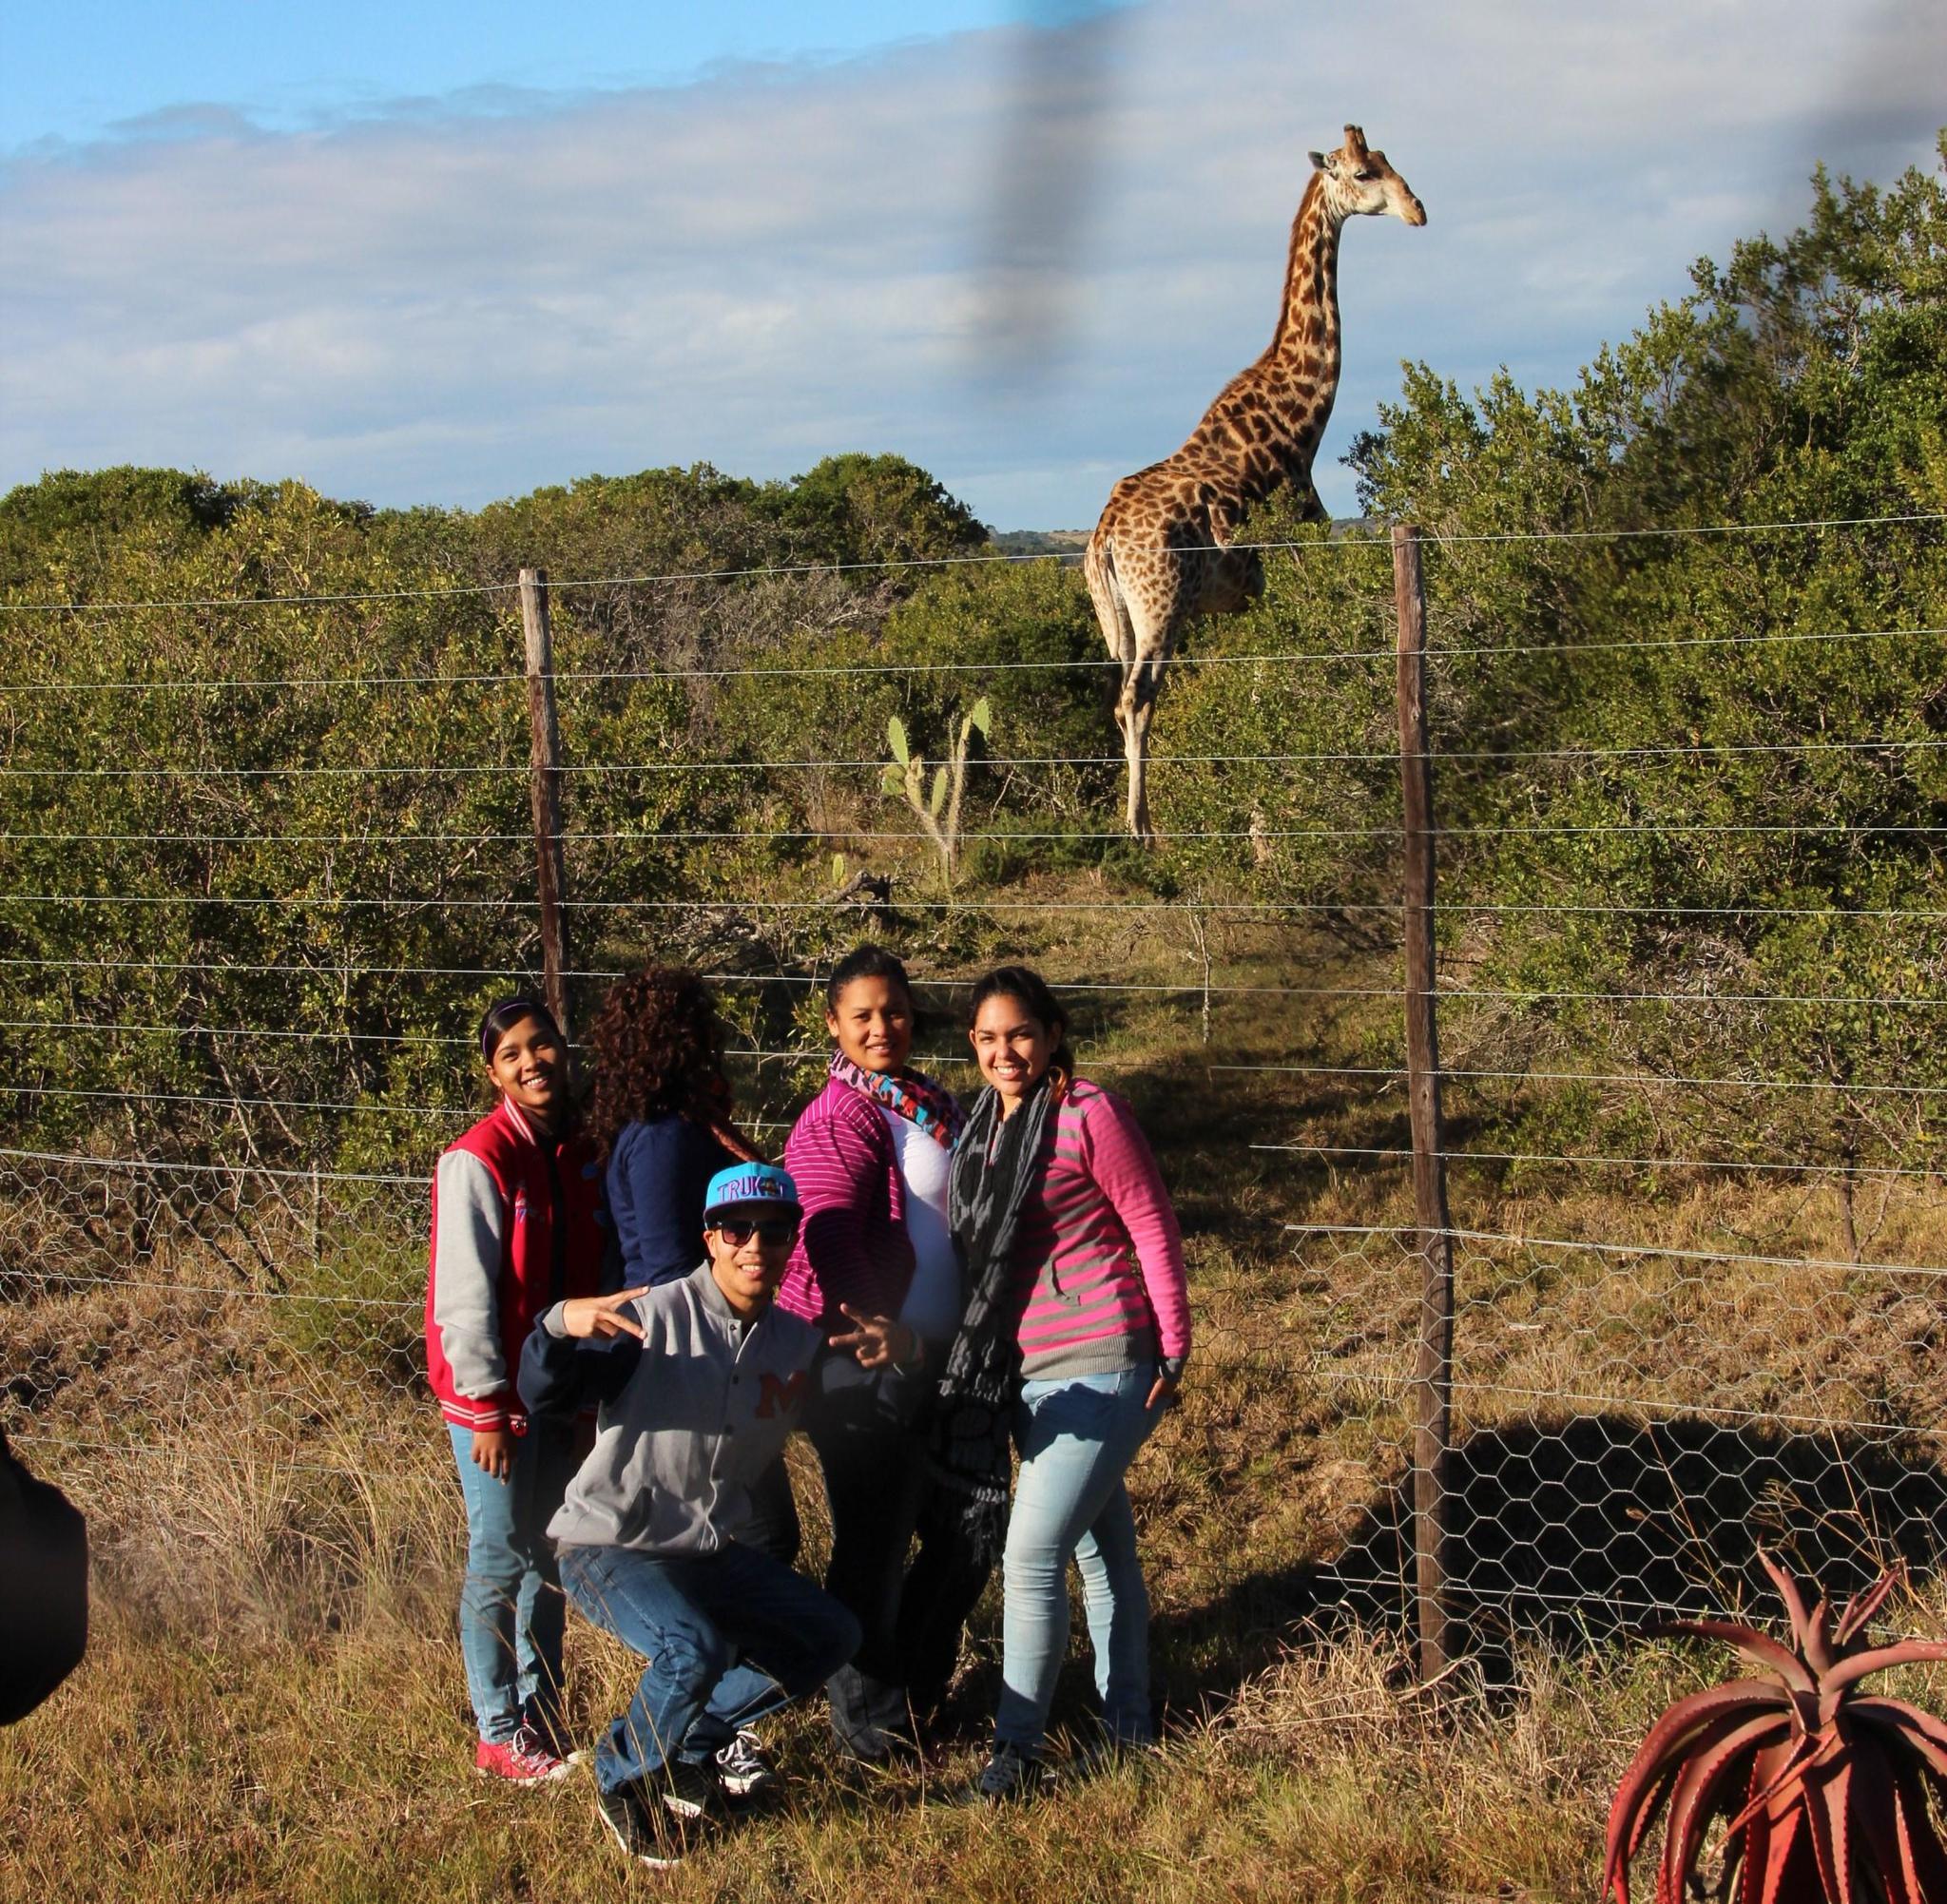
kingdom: Animalia
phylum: Chordata
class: Mammalia
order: Artiodactyla
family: Giraffidae
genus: Giraffa
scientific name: Giraffa giraffa
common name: Southern giraffe
